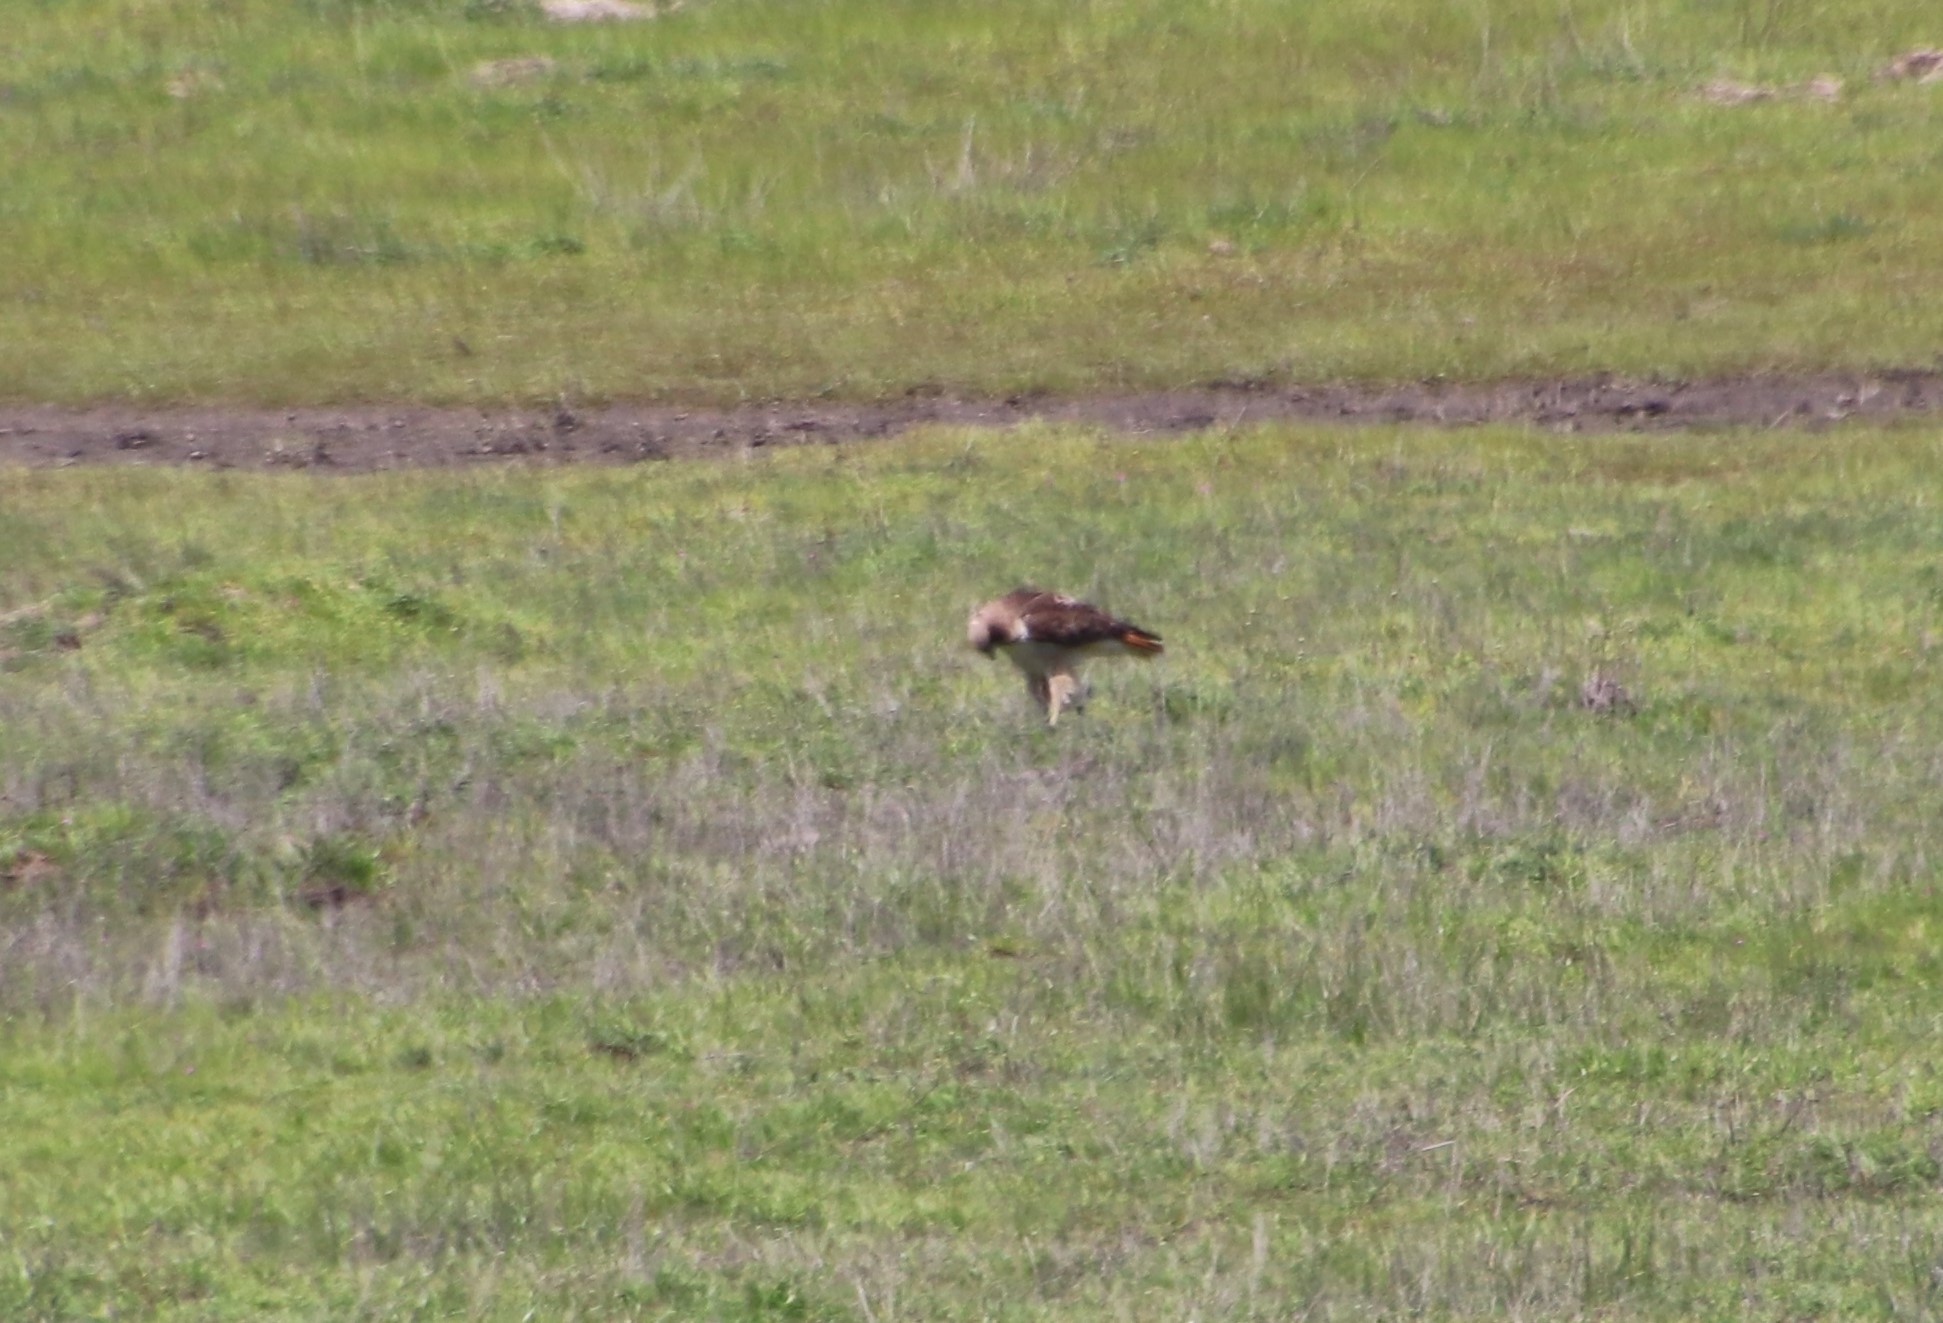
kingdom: Animalia
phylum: Chordata
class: Aves
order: Accipitriformes
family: Accipitridae
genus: Buteo
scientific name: Buteo jamaicensis
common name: Red-tailed hawk
